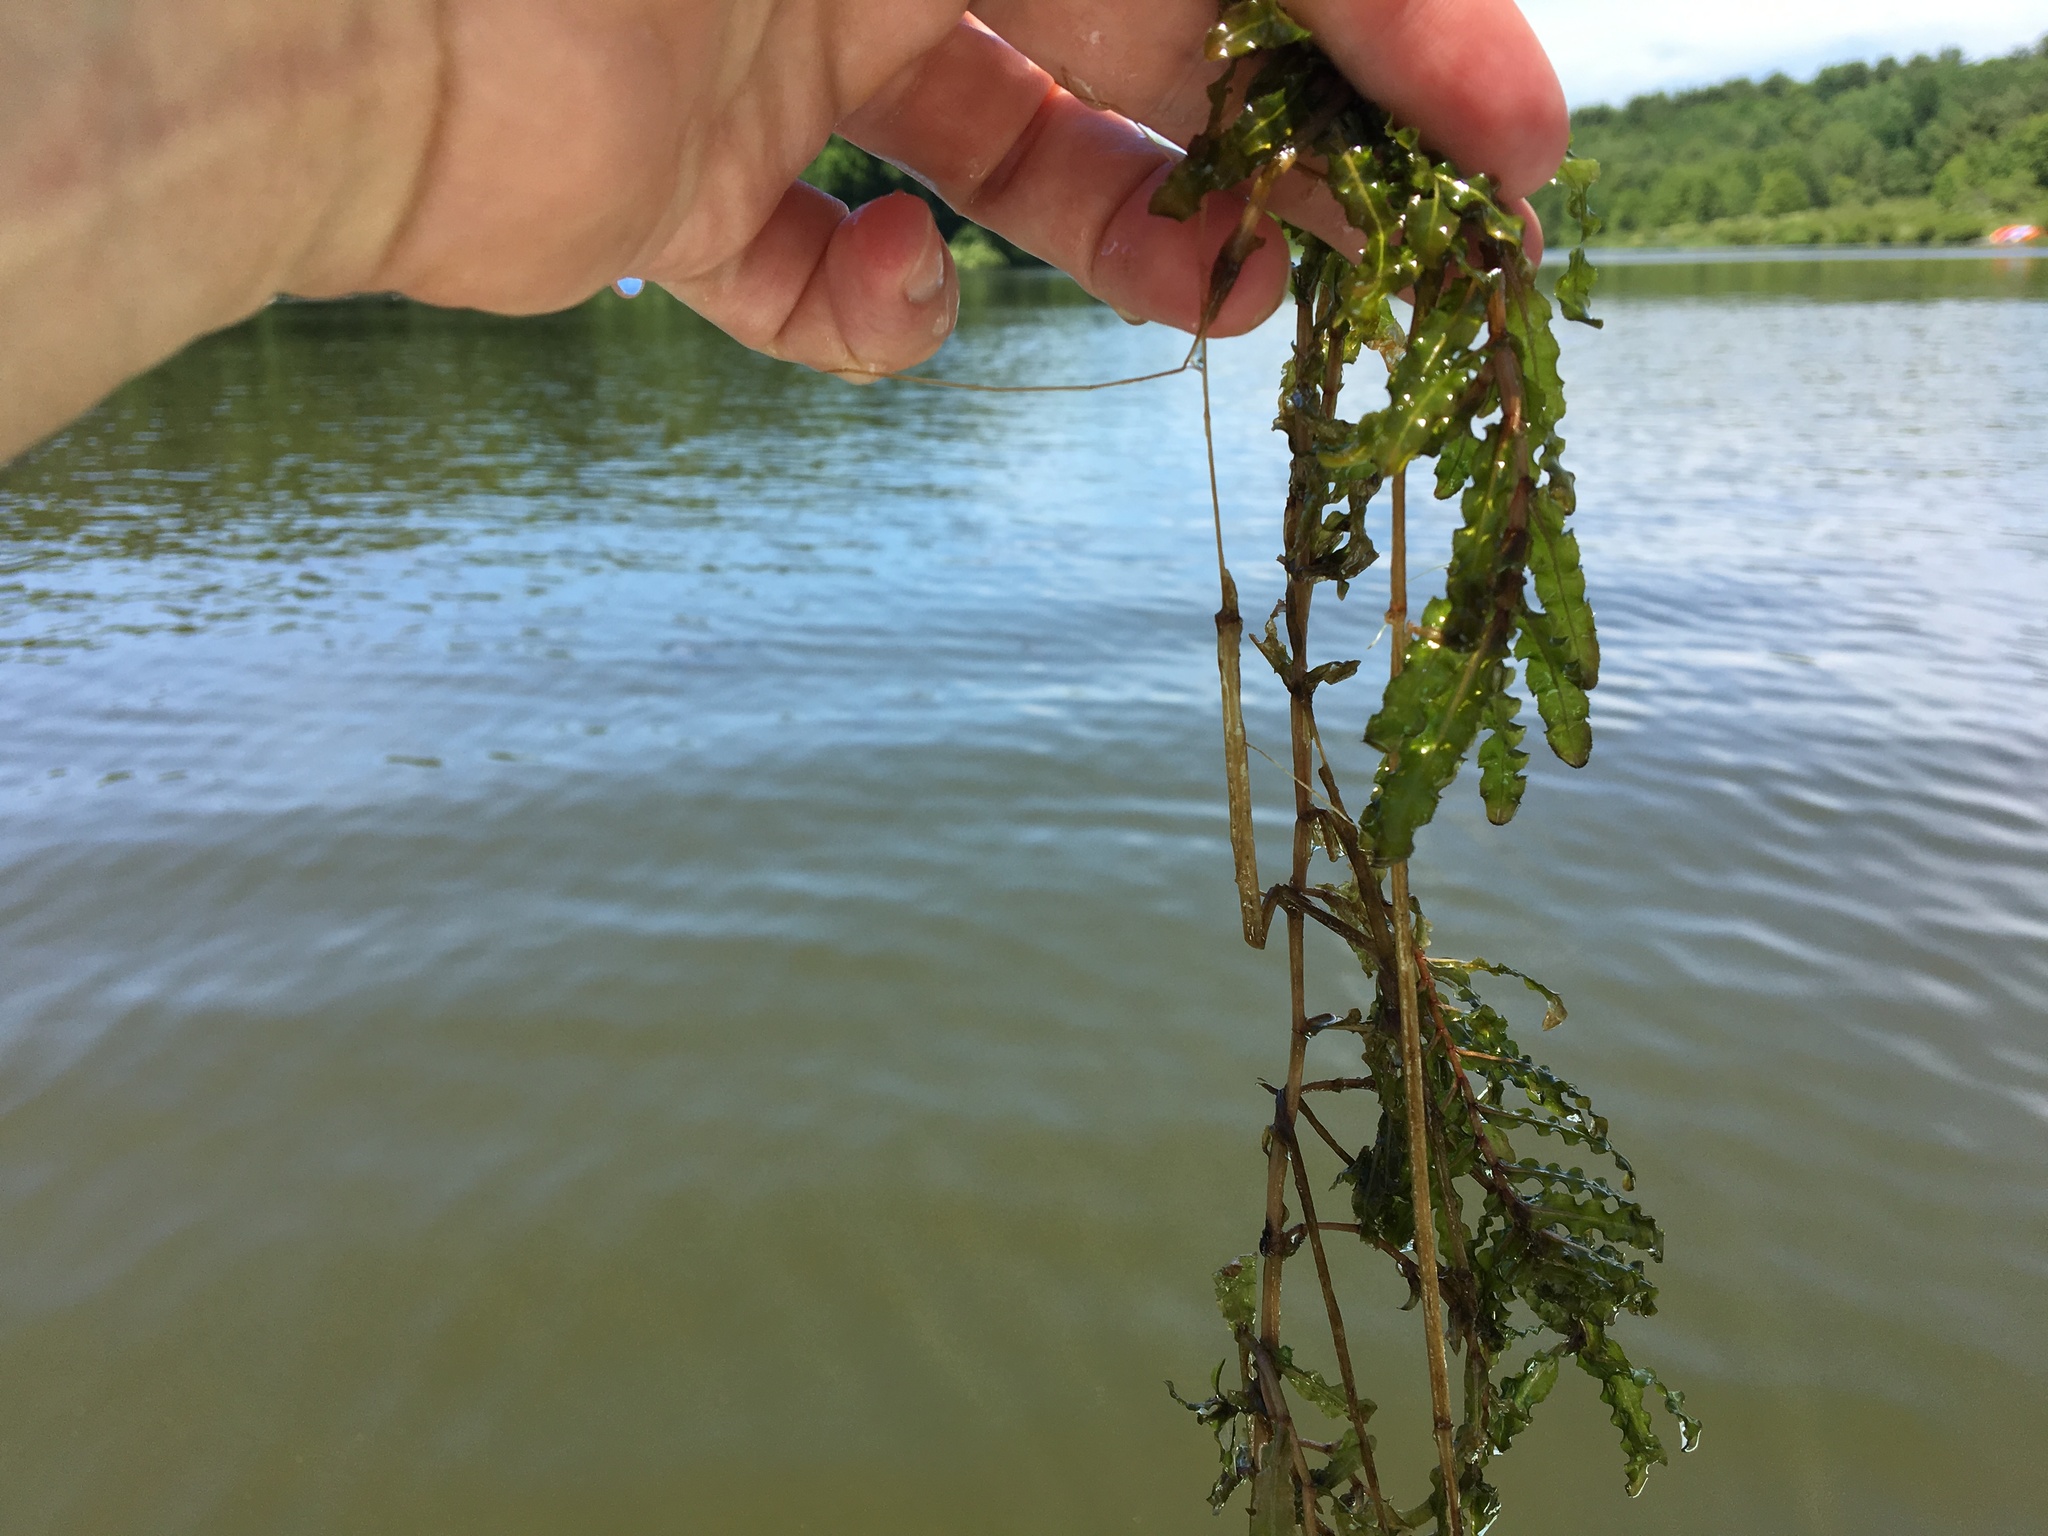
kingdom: Plantae
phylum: Tracheophyta
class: Liliopsida
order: Alismatales
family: Potamogetonaceae
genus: Potamogeton
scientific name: Potamogeton crispus
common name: Curled pondweed
